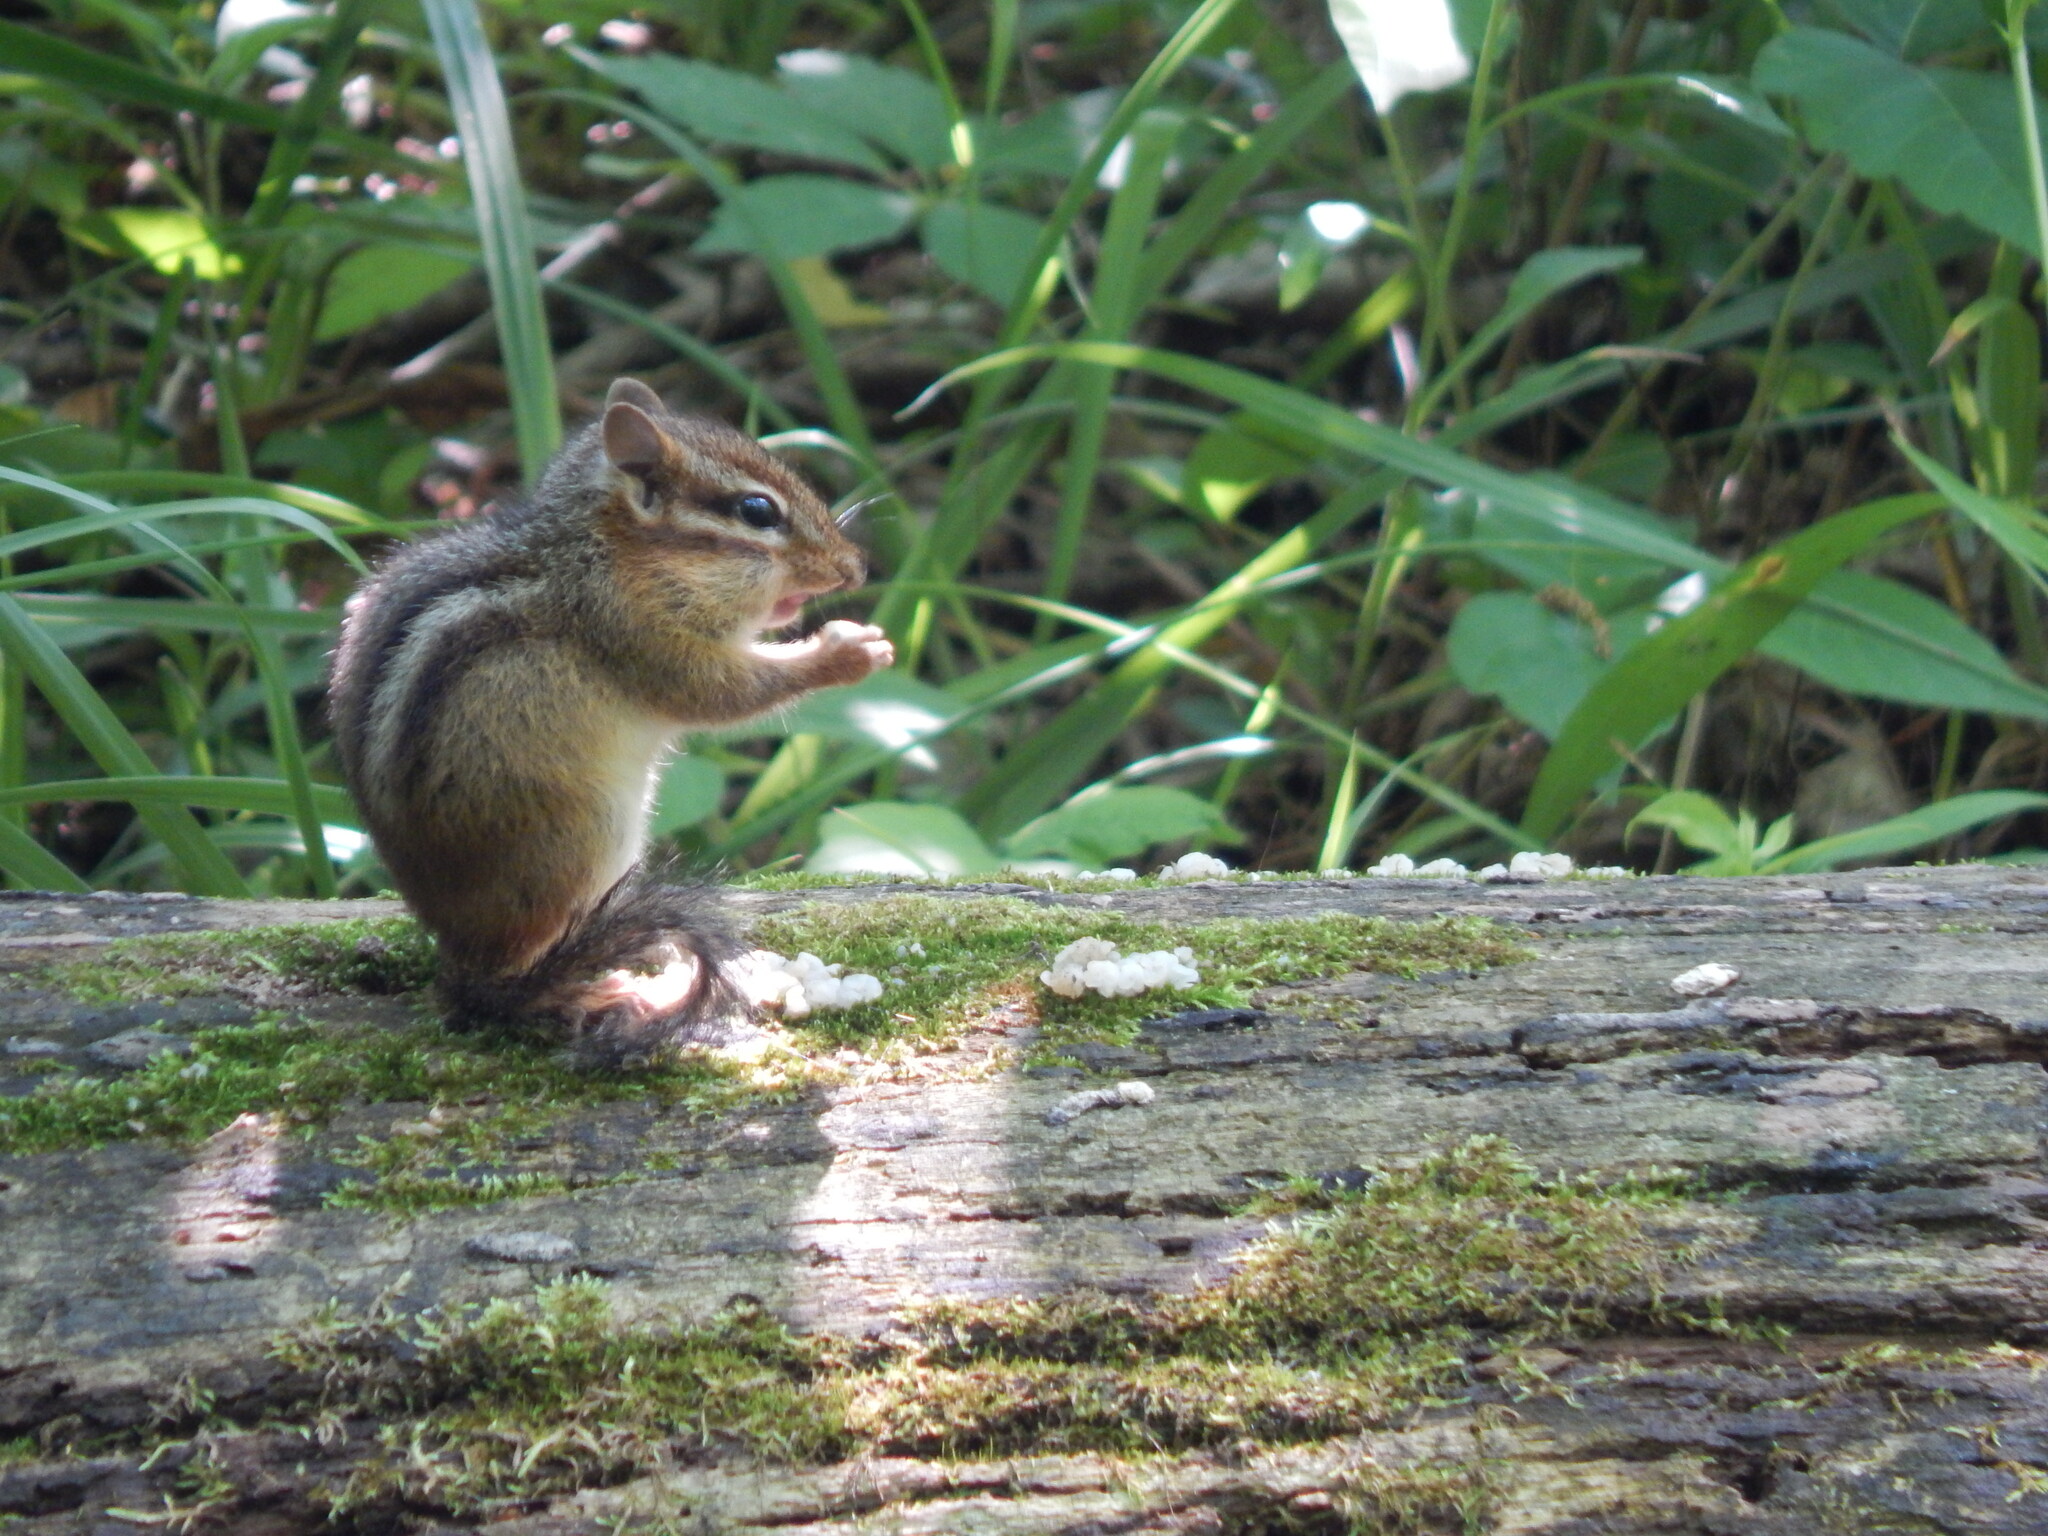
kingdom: Animalia
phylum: Chordata
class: Mammalia
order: Rodentia
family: Sciuridae
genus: Tamias
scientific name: Tamias striatus
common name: Eastern chipmunk
